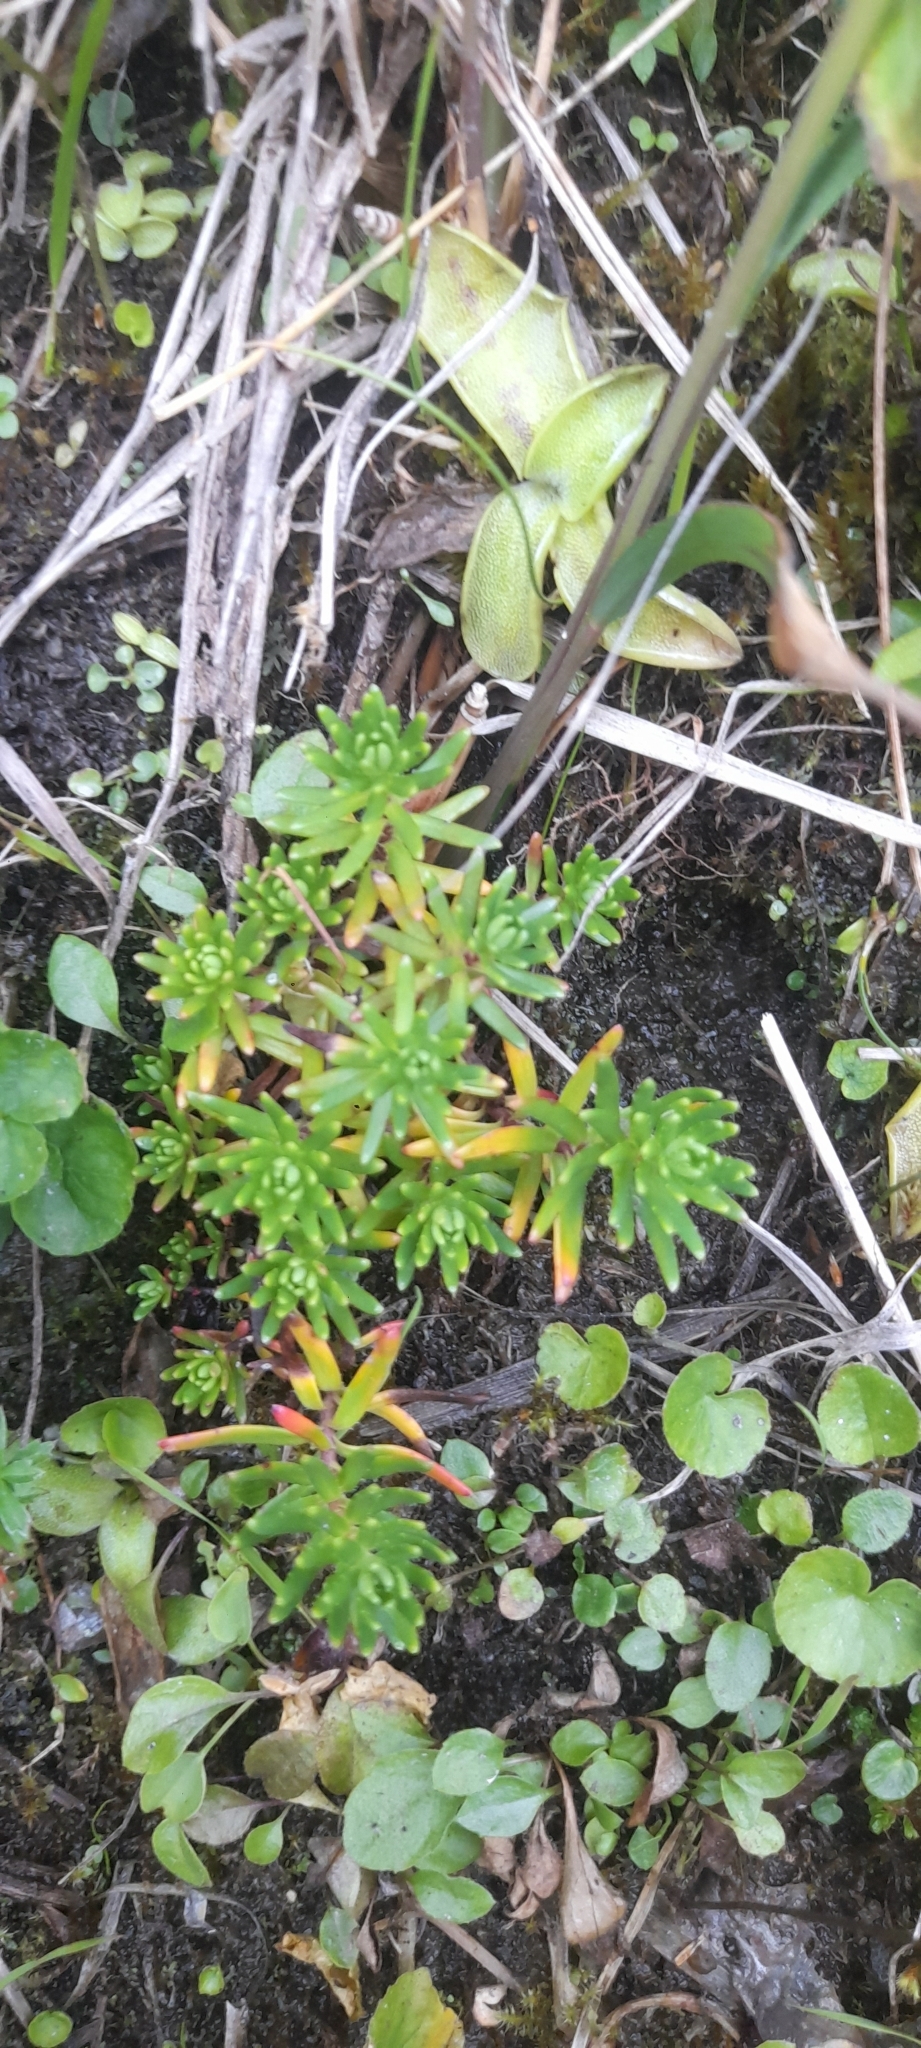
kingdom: Plantae
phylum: Tracheophyta
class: Magnoliopsida
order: Saxifragales
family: Saxifragaceae
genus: Saxifraga
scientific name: Saxifraga aizoides
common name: Yellow mountain saxifrage
